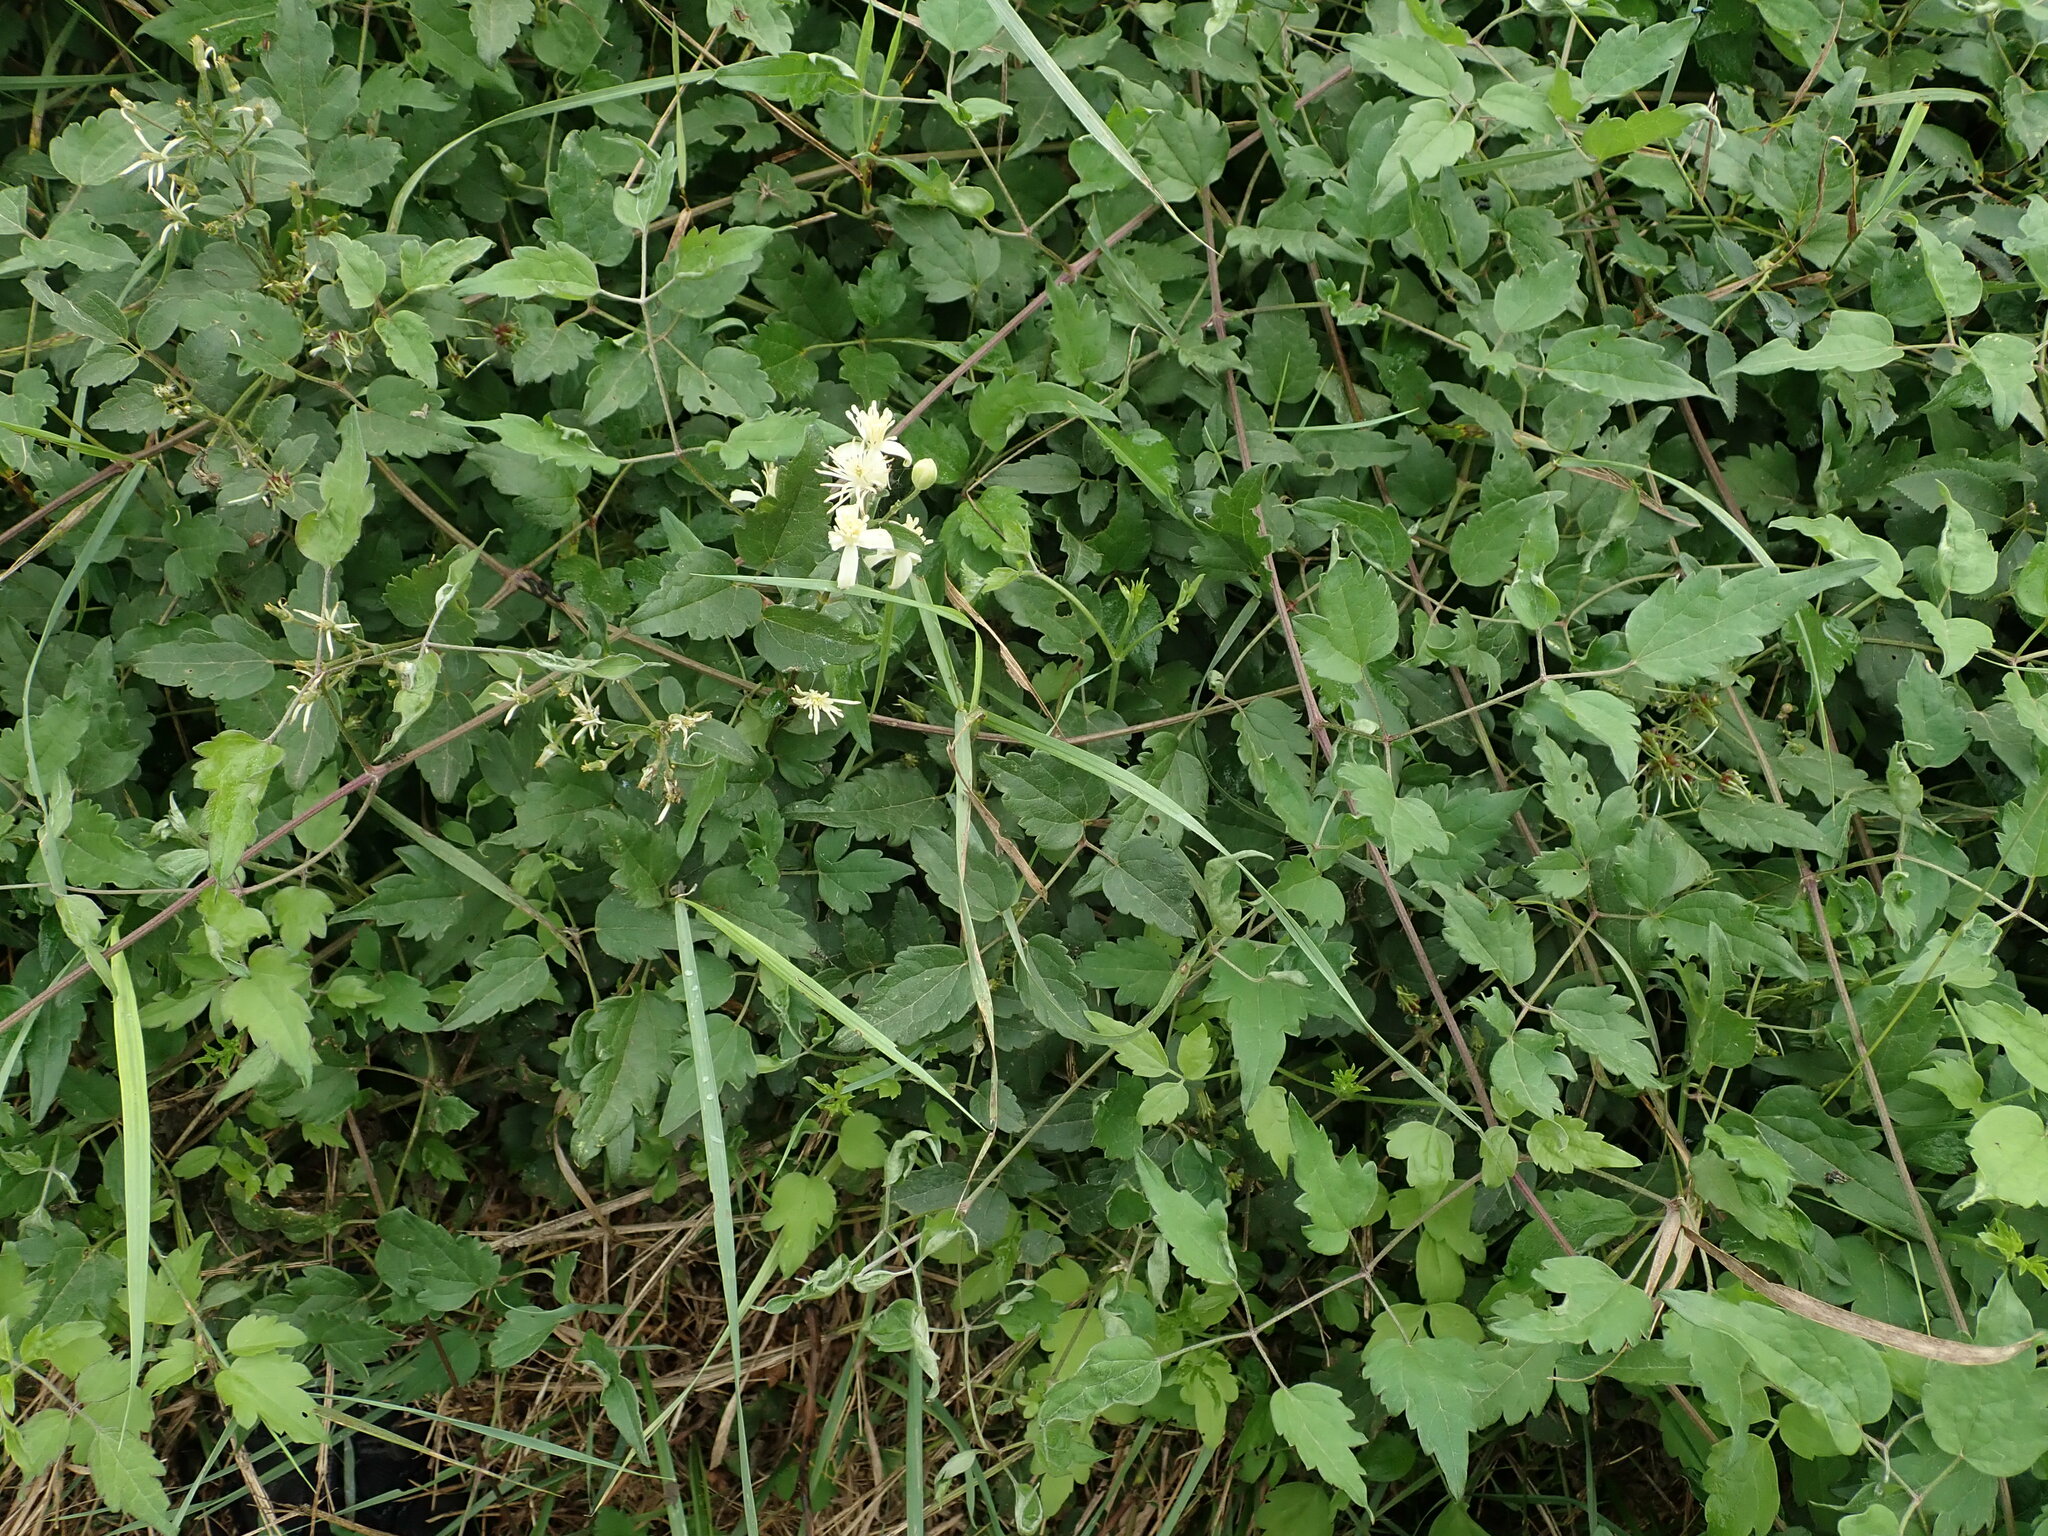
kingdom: Plantae
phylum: Tracheophyta
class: Magnoliopsida
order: Ranunculales
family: Ranunculaceae
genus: Clematis
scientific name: Clematis vitalba
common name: Evergreen clematis
